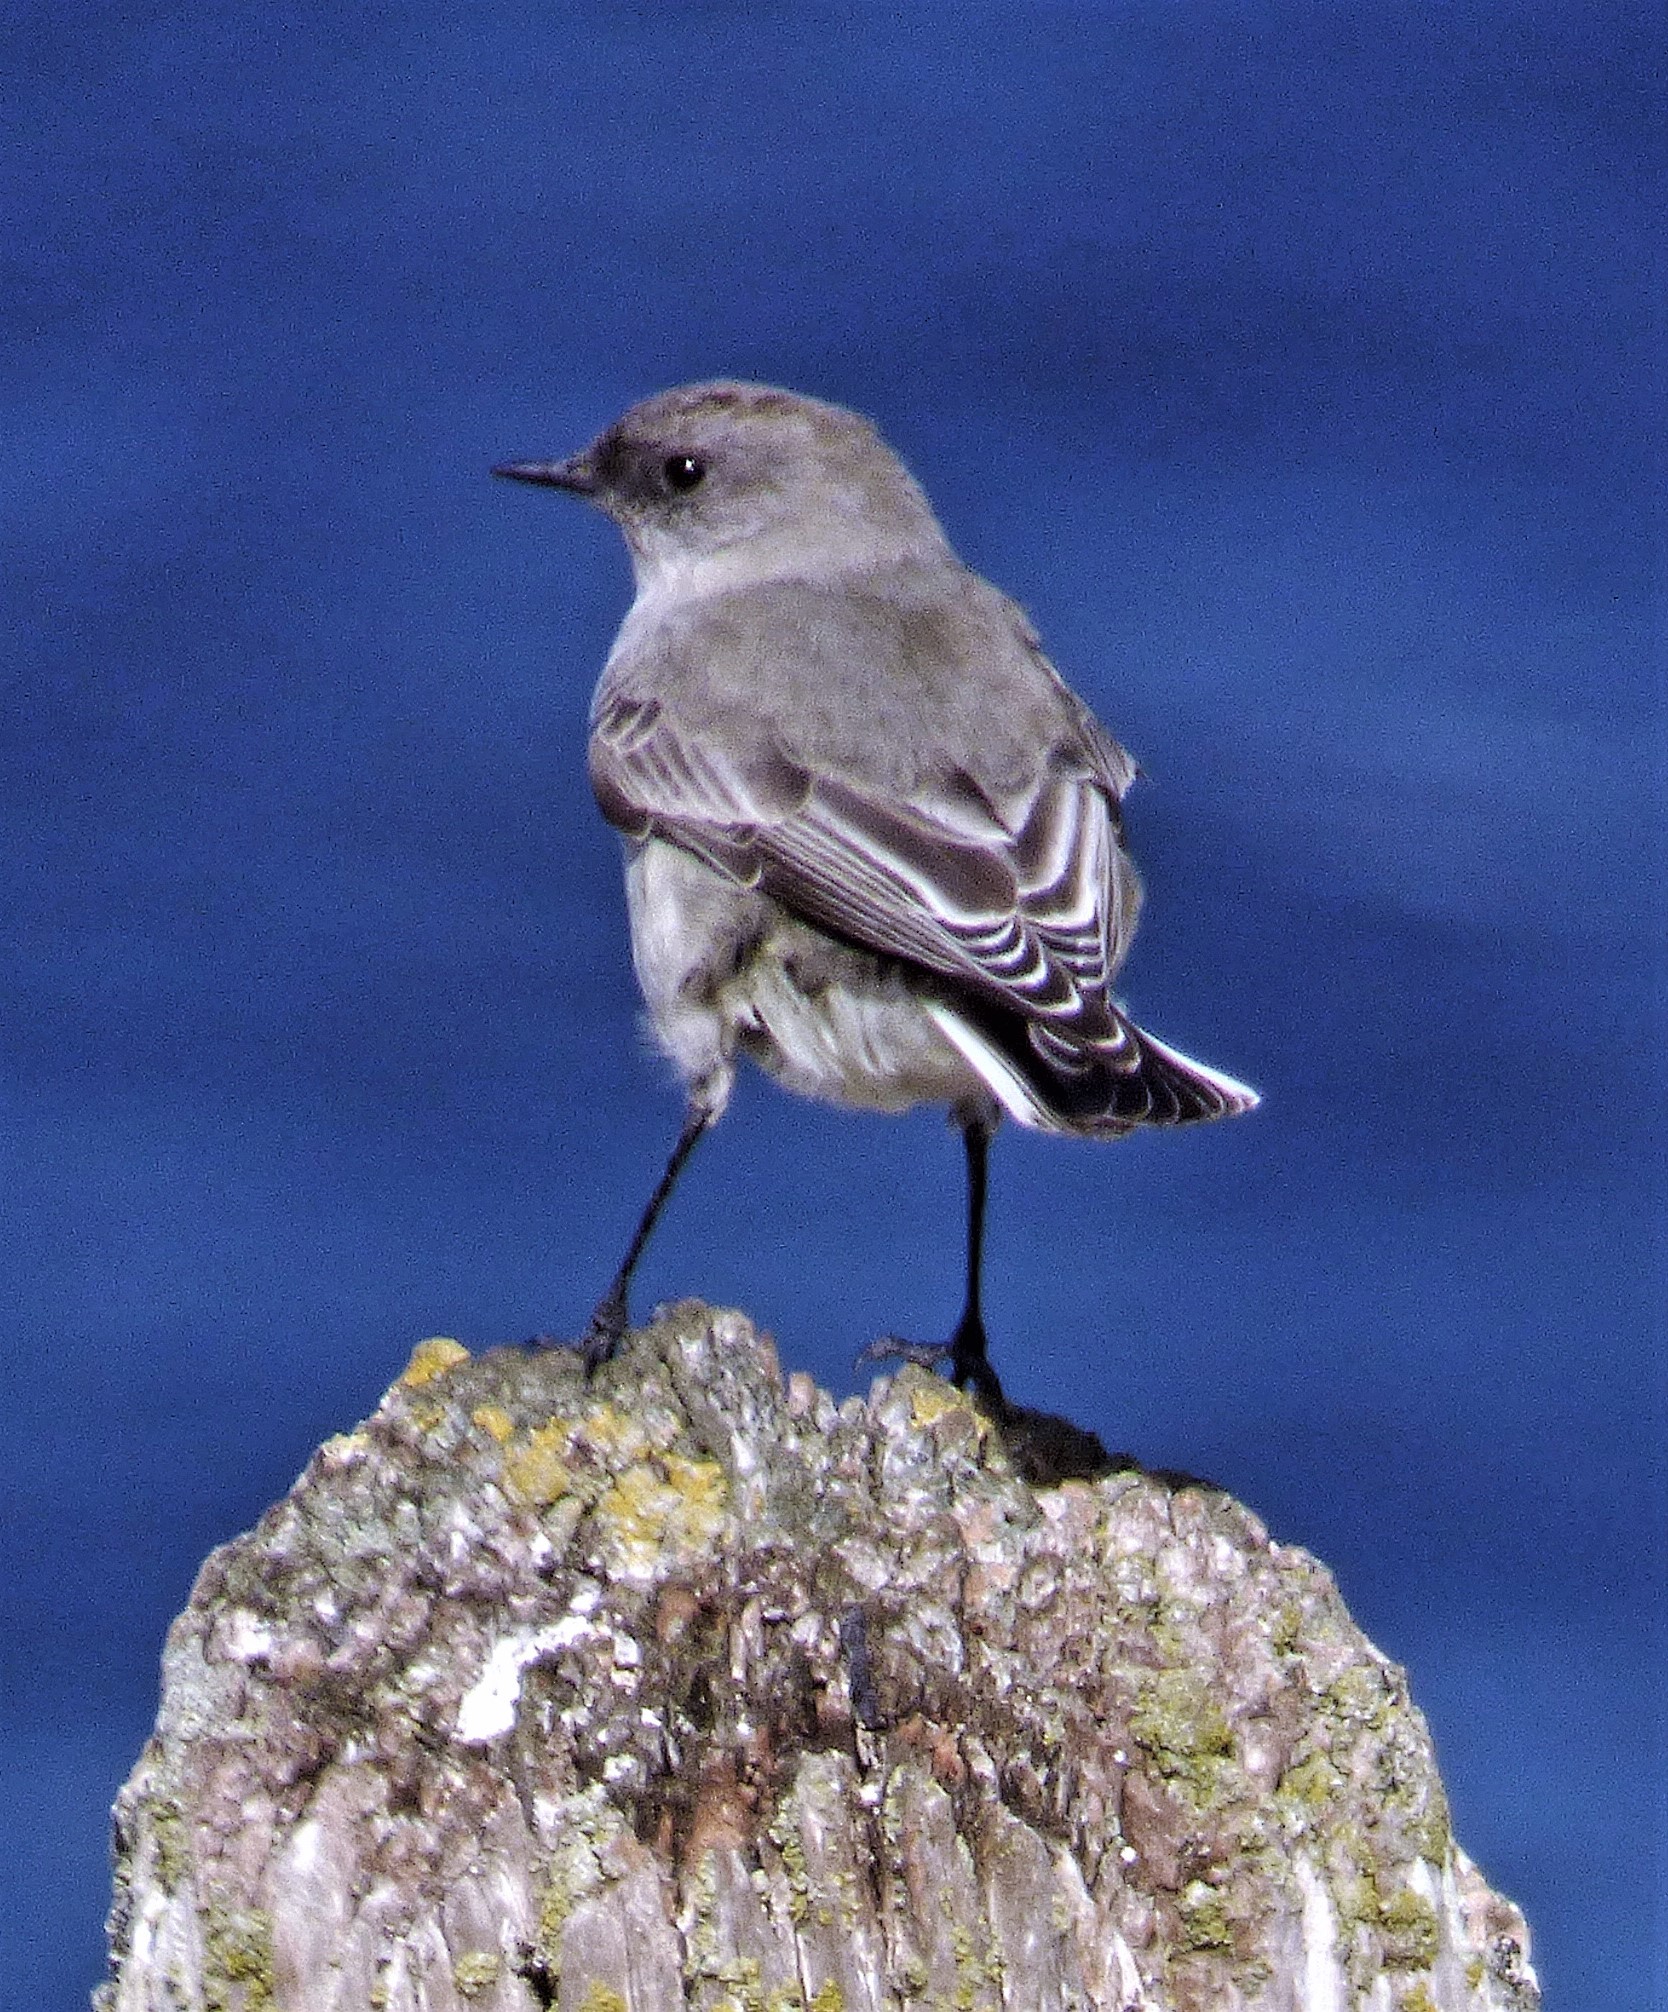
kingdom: Animalia
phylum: Chordata
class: Aves
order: Passeriformes
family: Tyrannidae
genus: Muscisaxicola
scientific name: Muscisaxicola maclovianus
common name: Dark-faced ground tyrant
